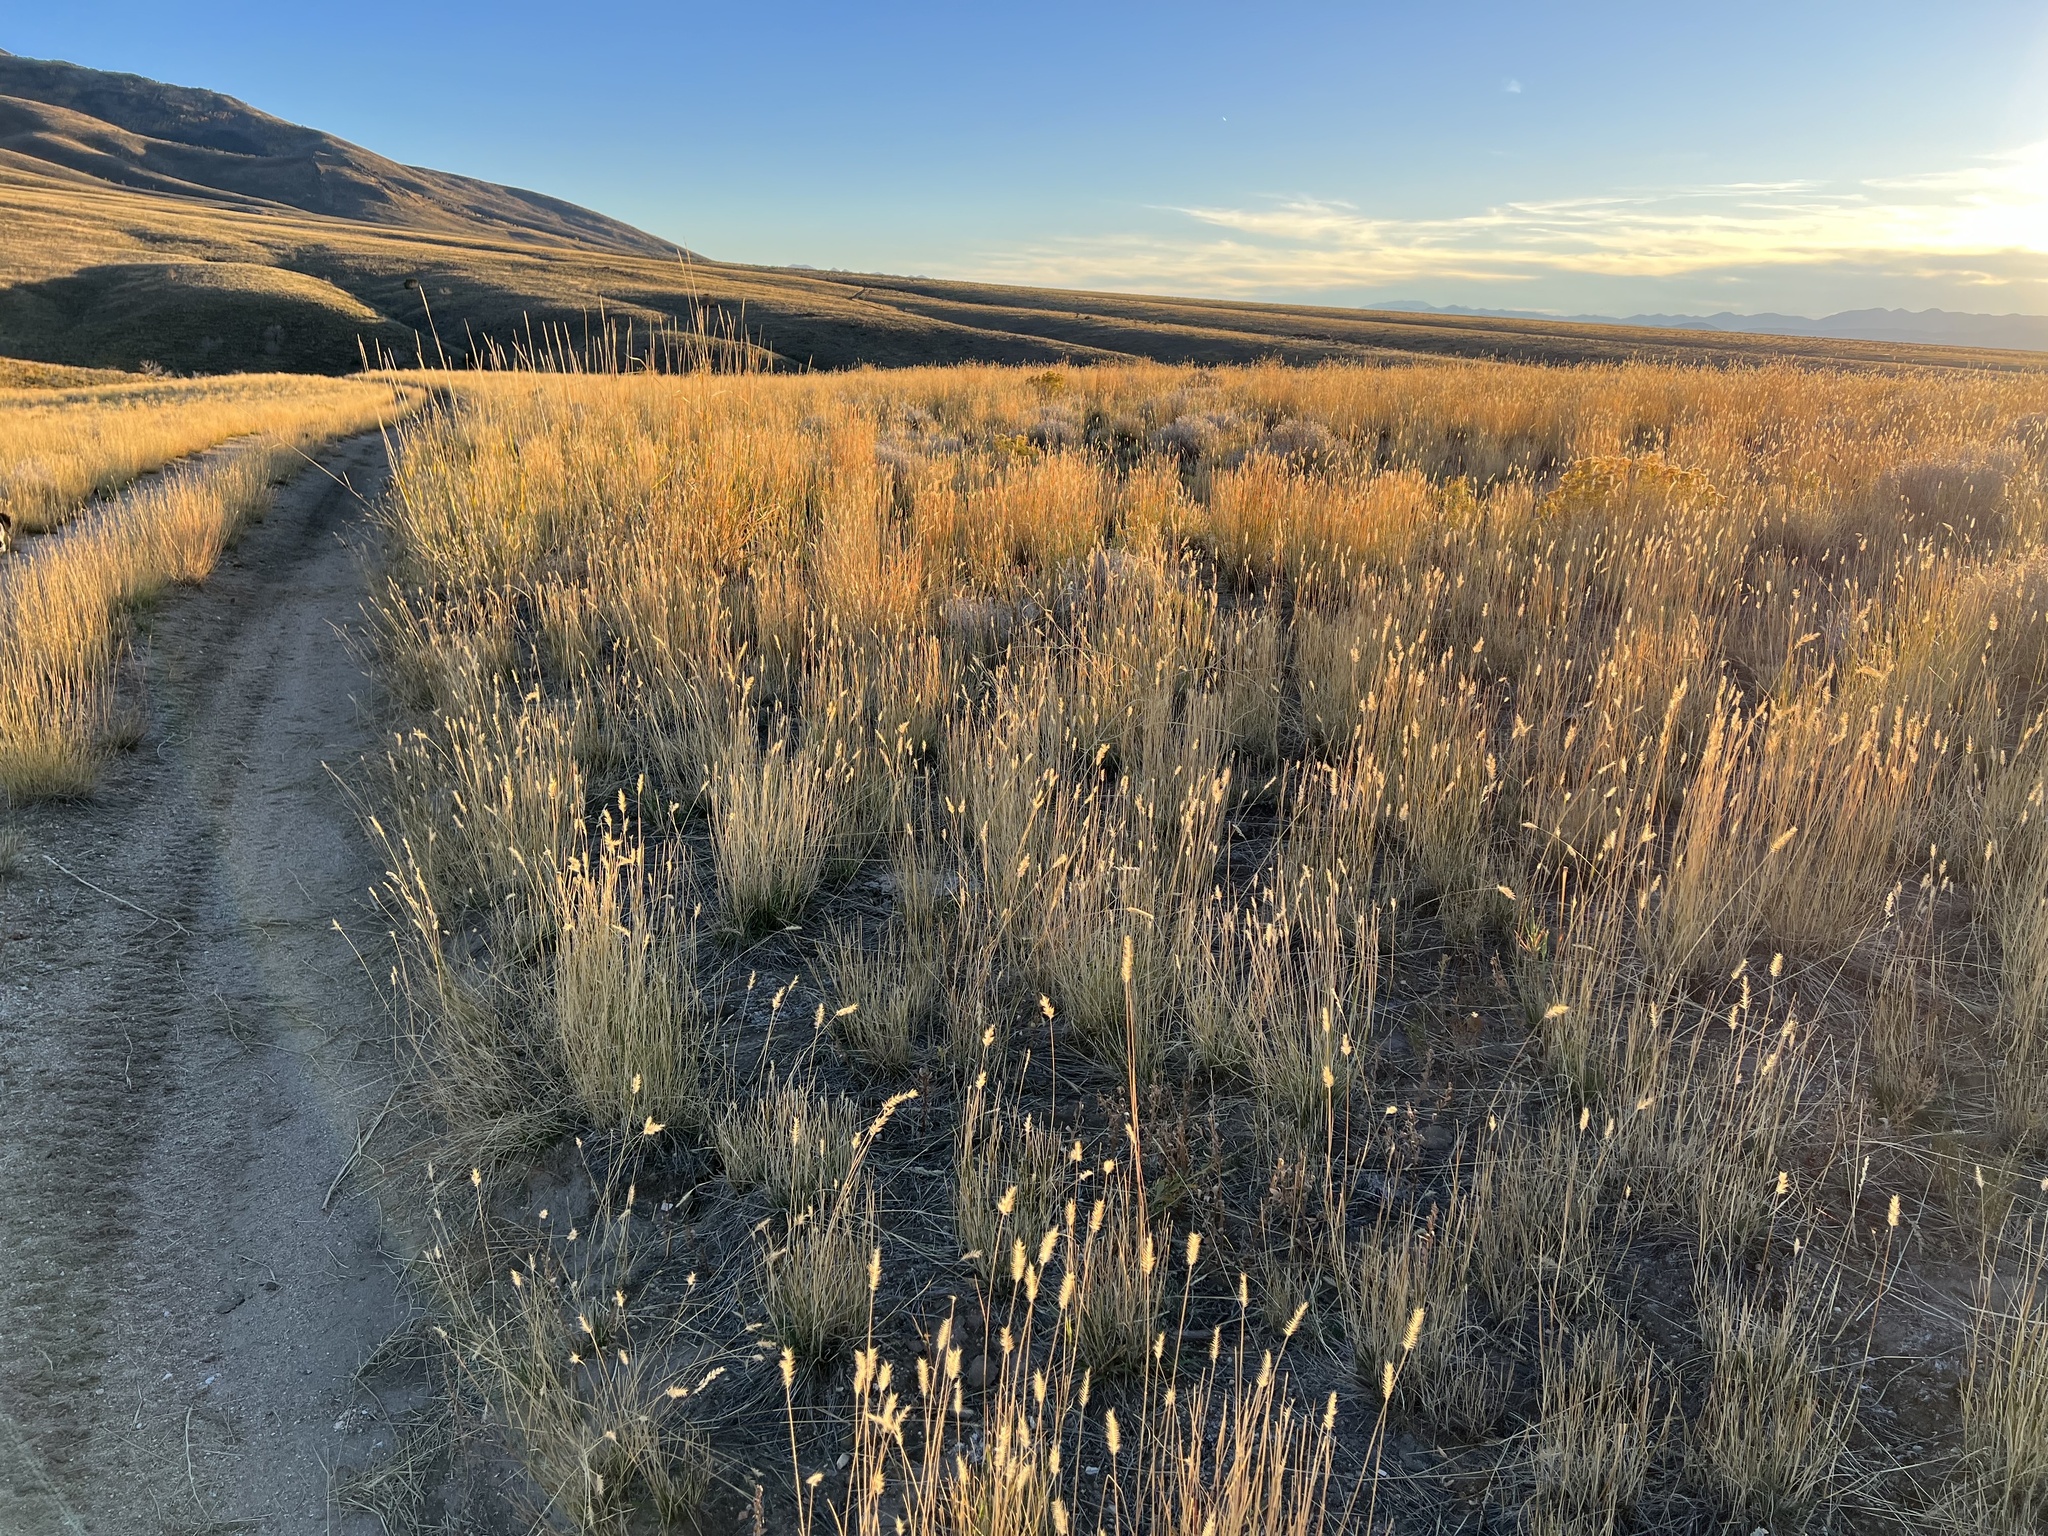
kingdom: Plantae
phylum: Tracheophyta
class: Liliopsida
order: Poales
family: Poaceae
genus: Agropyron
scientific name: Agropyron cristatum
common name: Crested wheatgrass
